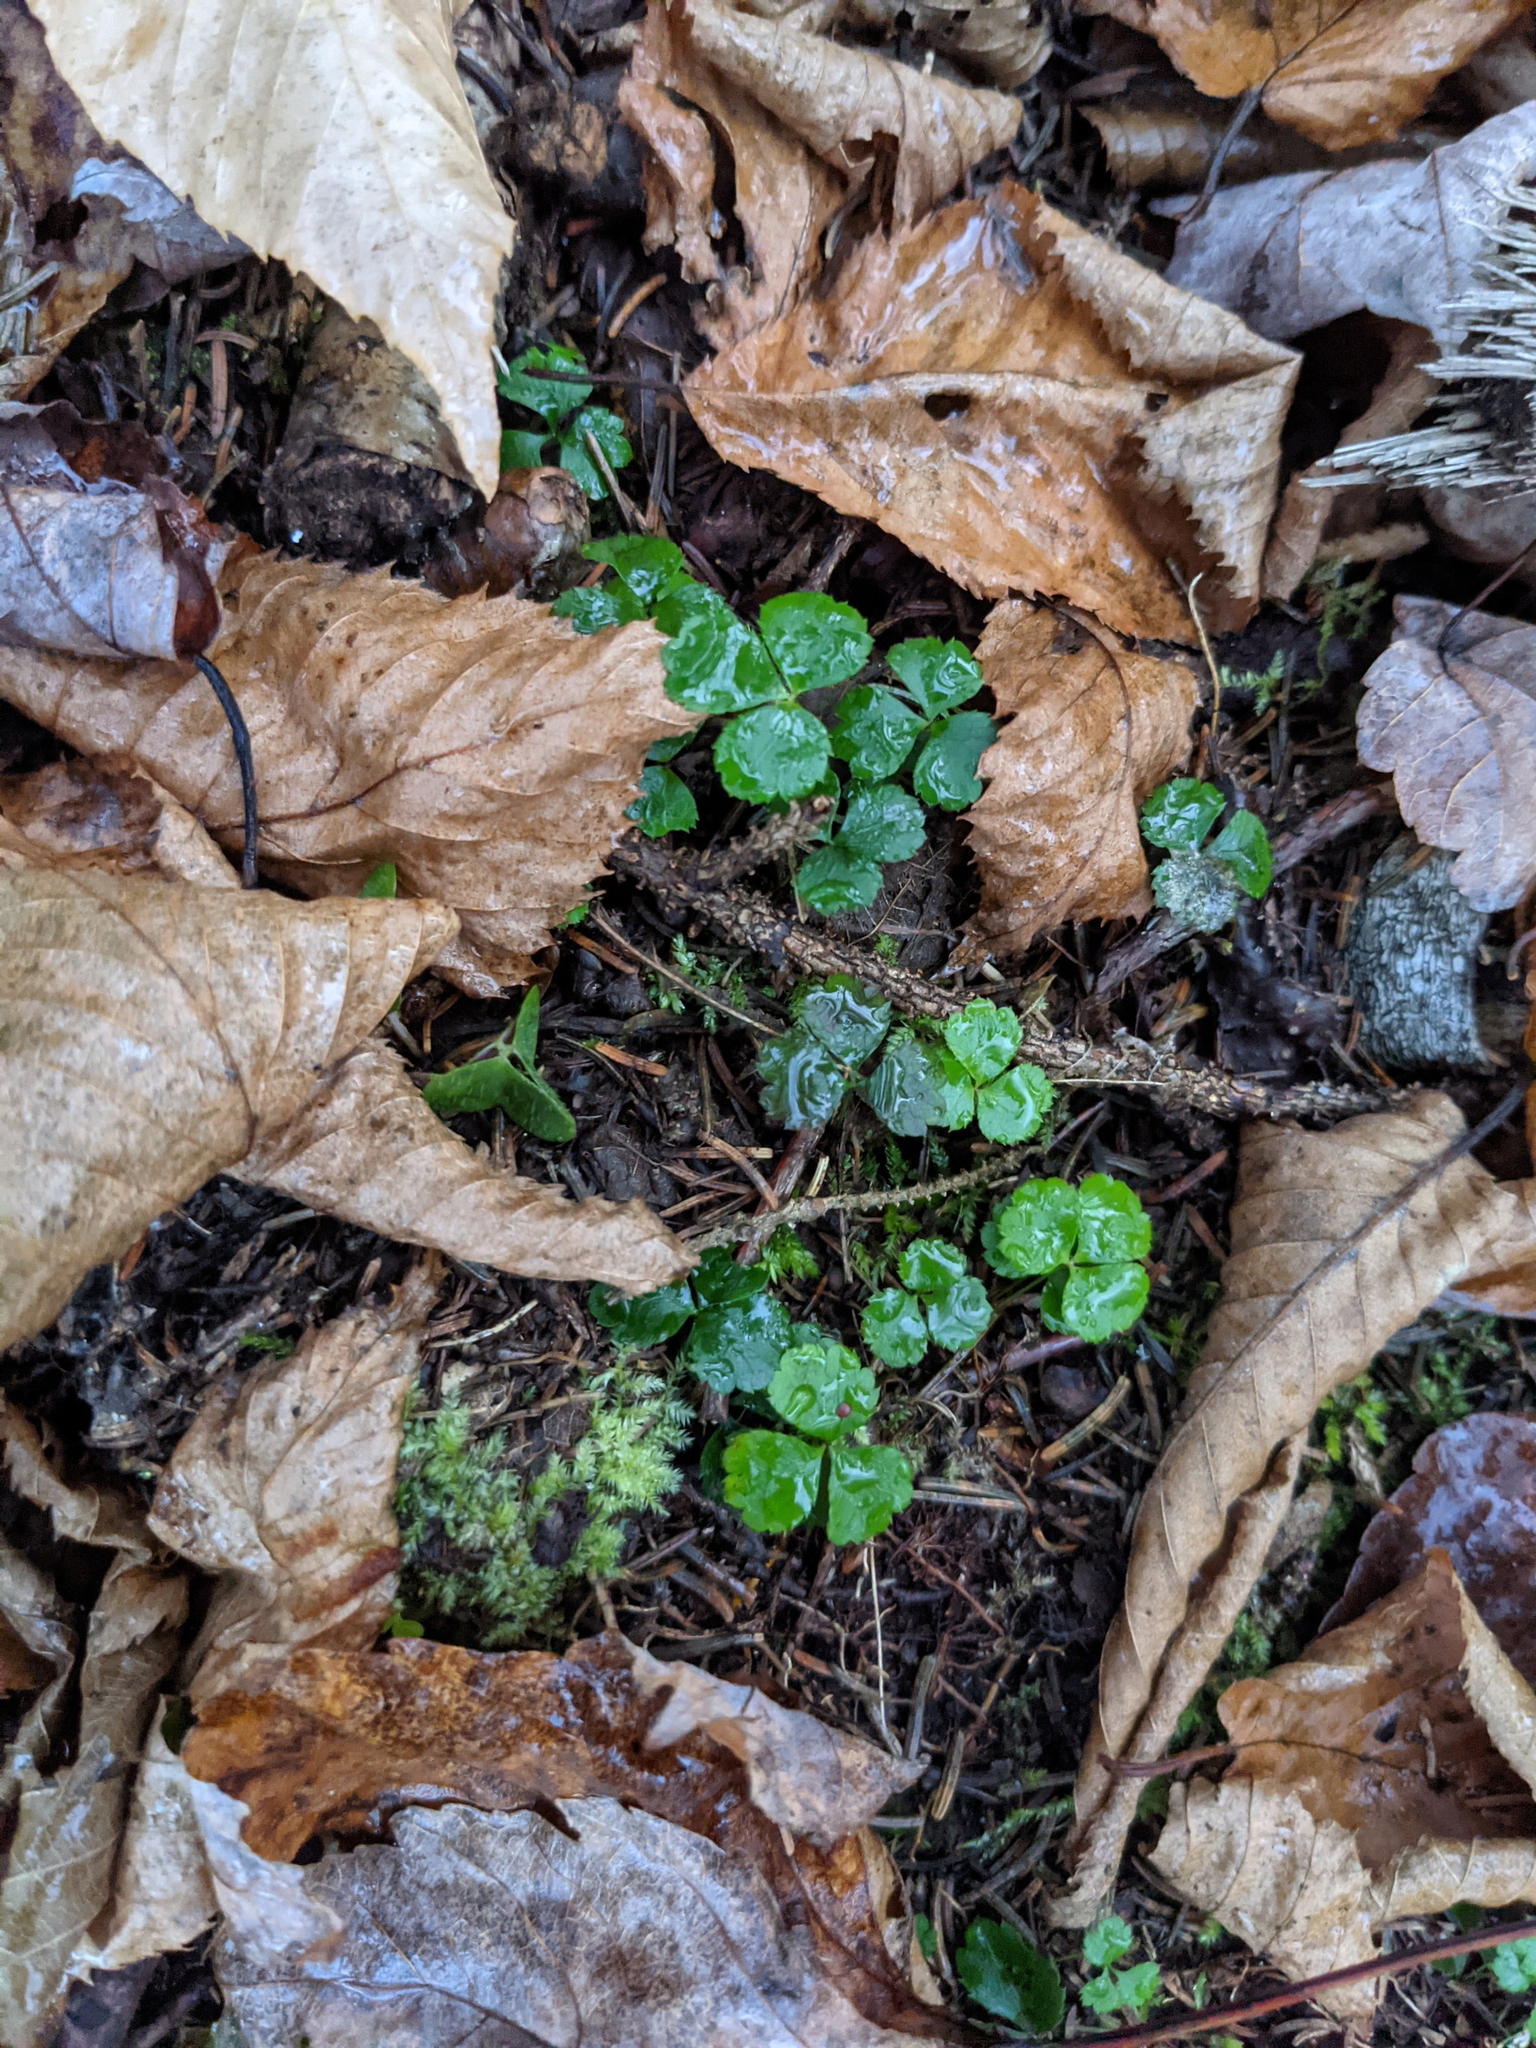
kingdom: Plantae
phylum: Tracheophyta
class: Magnoliopsida
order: Ranunculales
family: Ranunculaceae
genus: Coptis
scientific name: Coptis trifolia
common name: Canker-root
